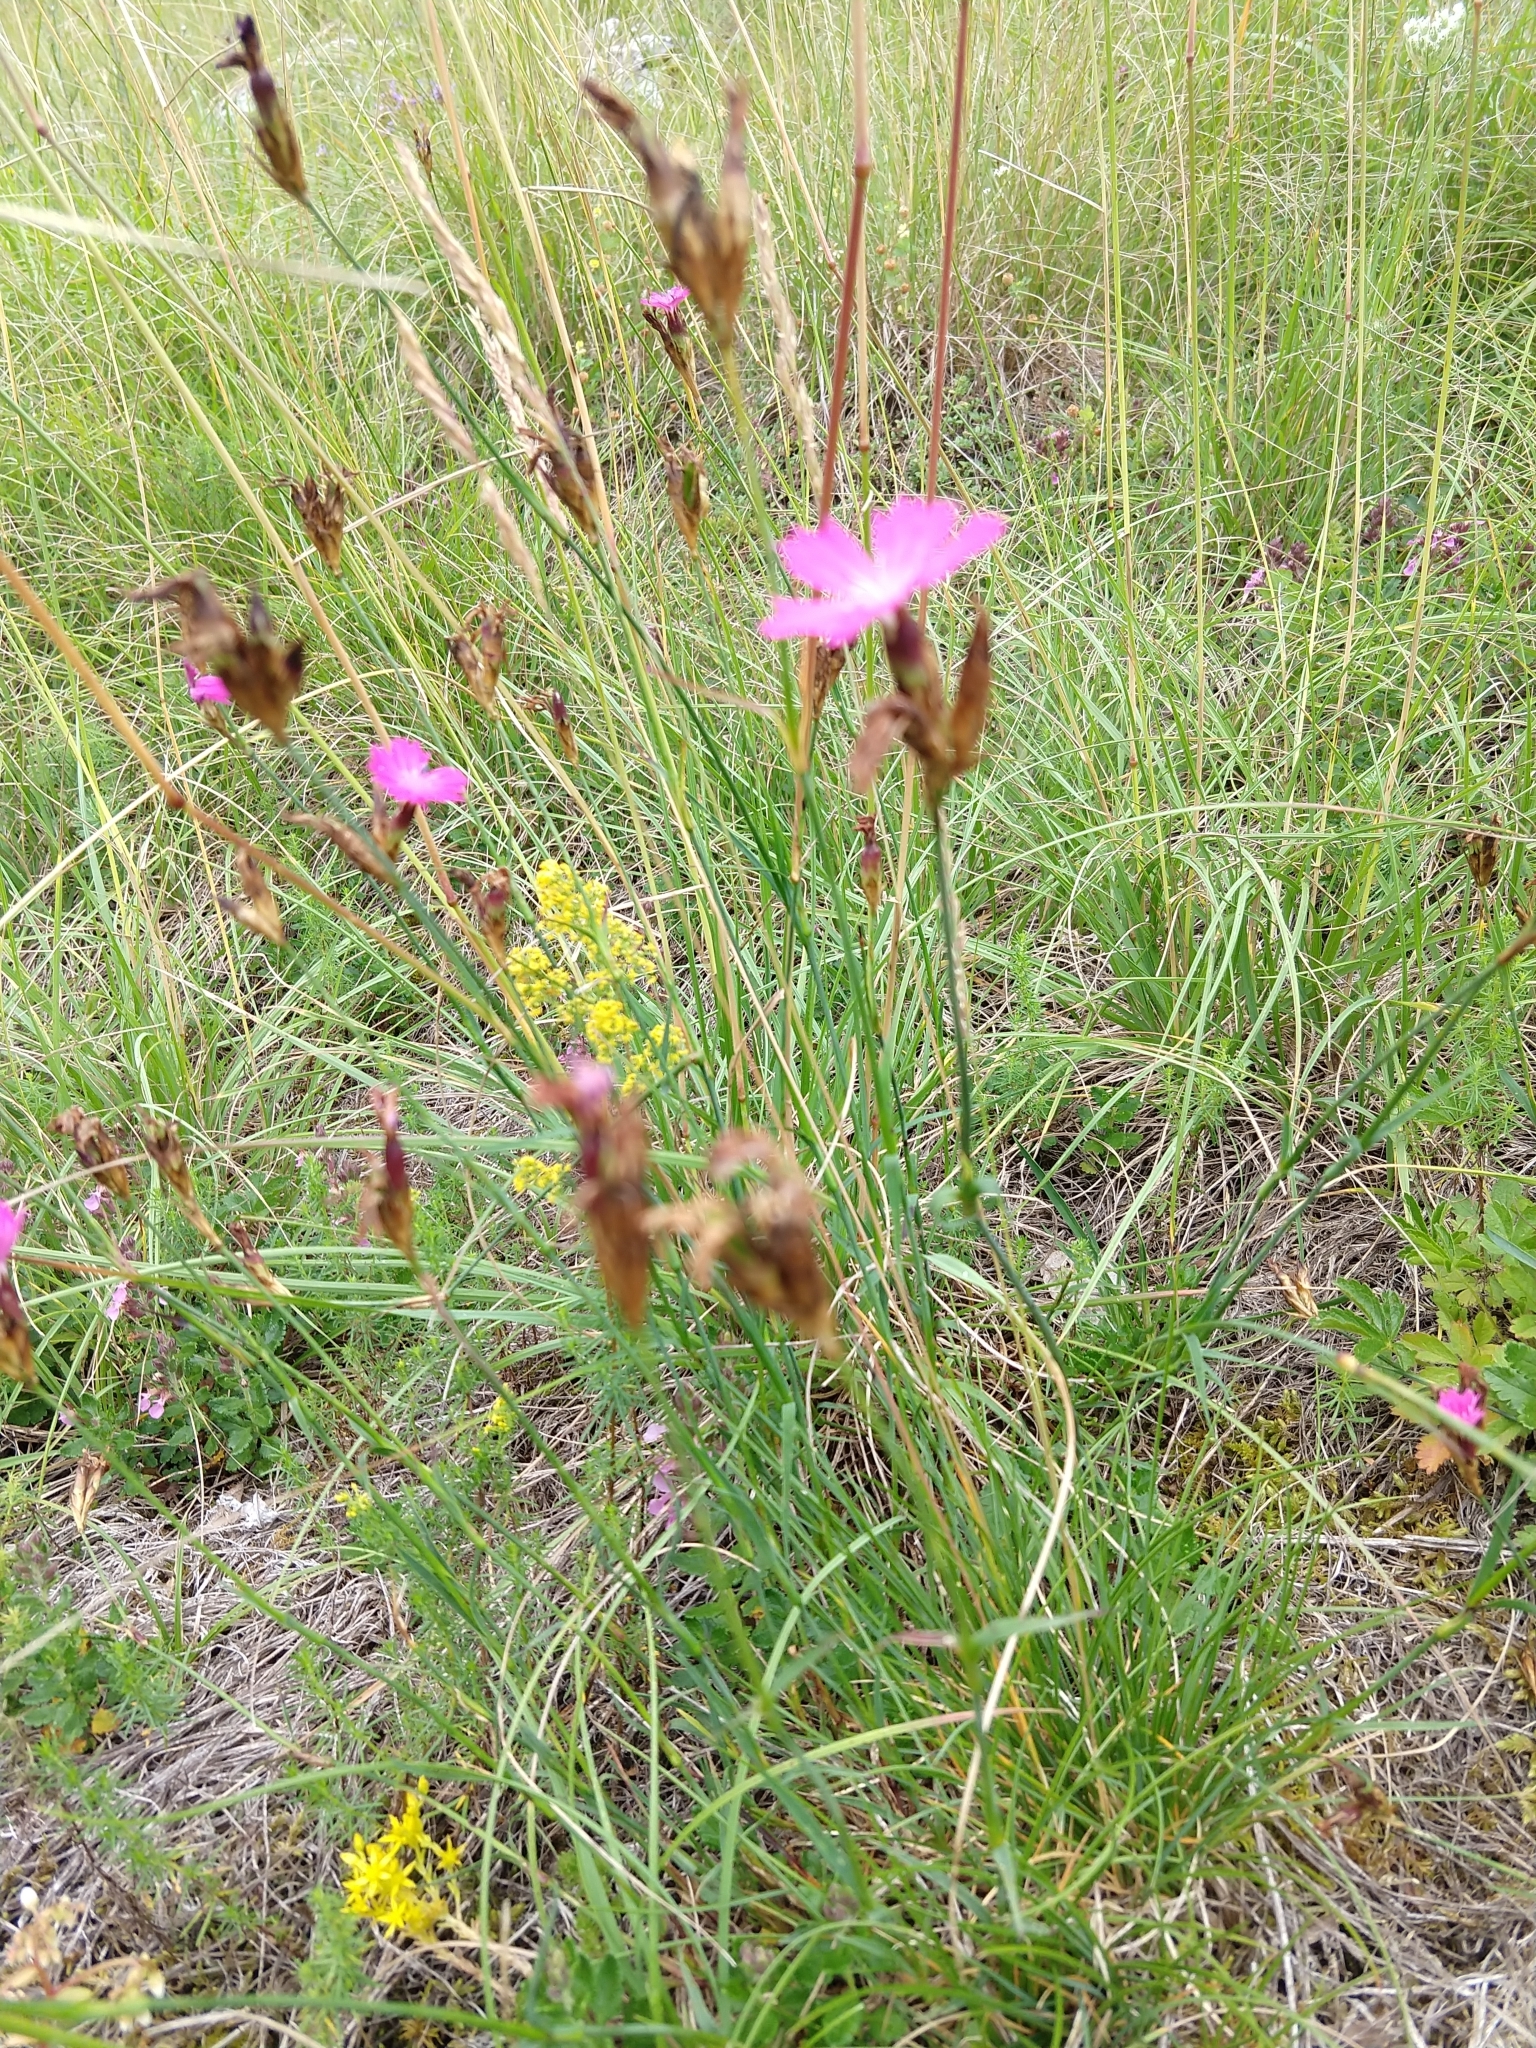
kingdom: Plantae
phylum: Tracheophyta
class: Magnoliopsida
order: Caryophyllales
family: Caryophyllaceae
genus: Dianthus
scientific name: Dianthus carthusianorum
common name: Carthusian pink
